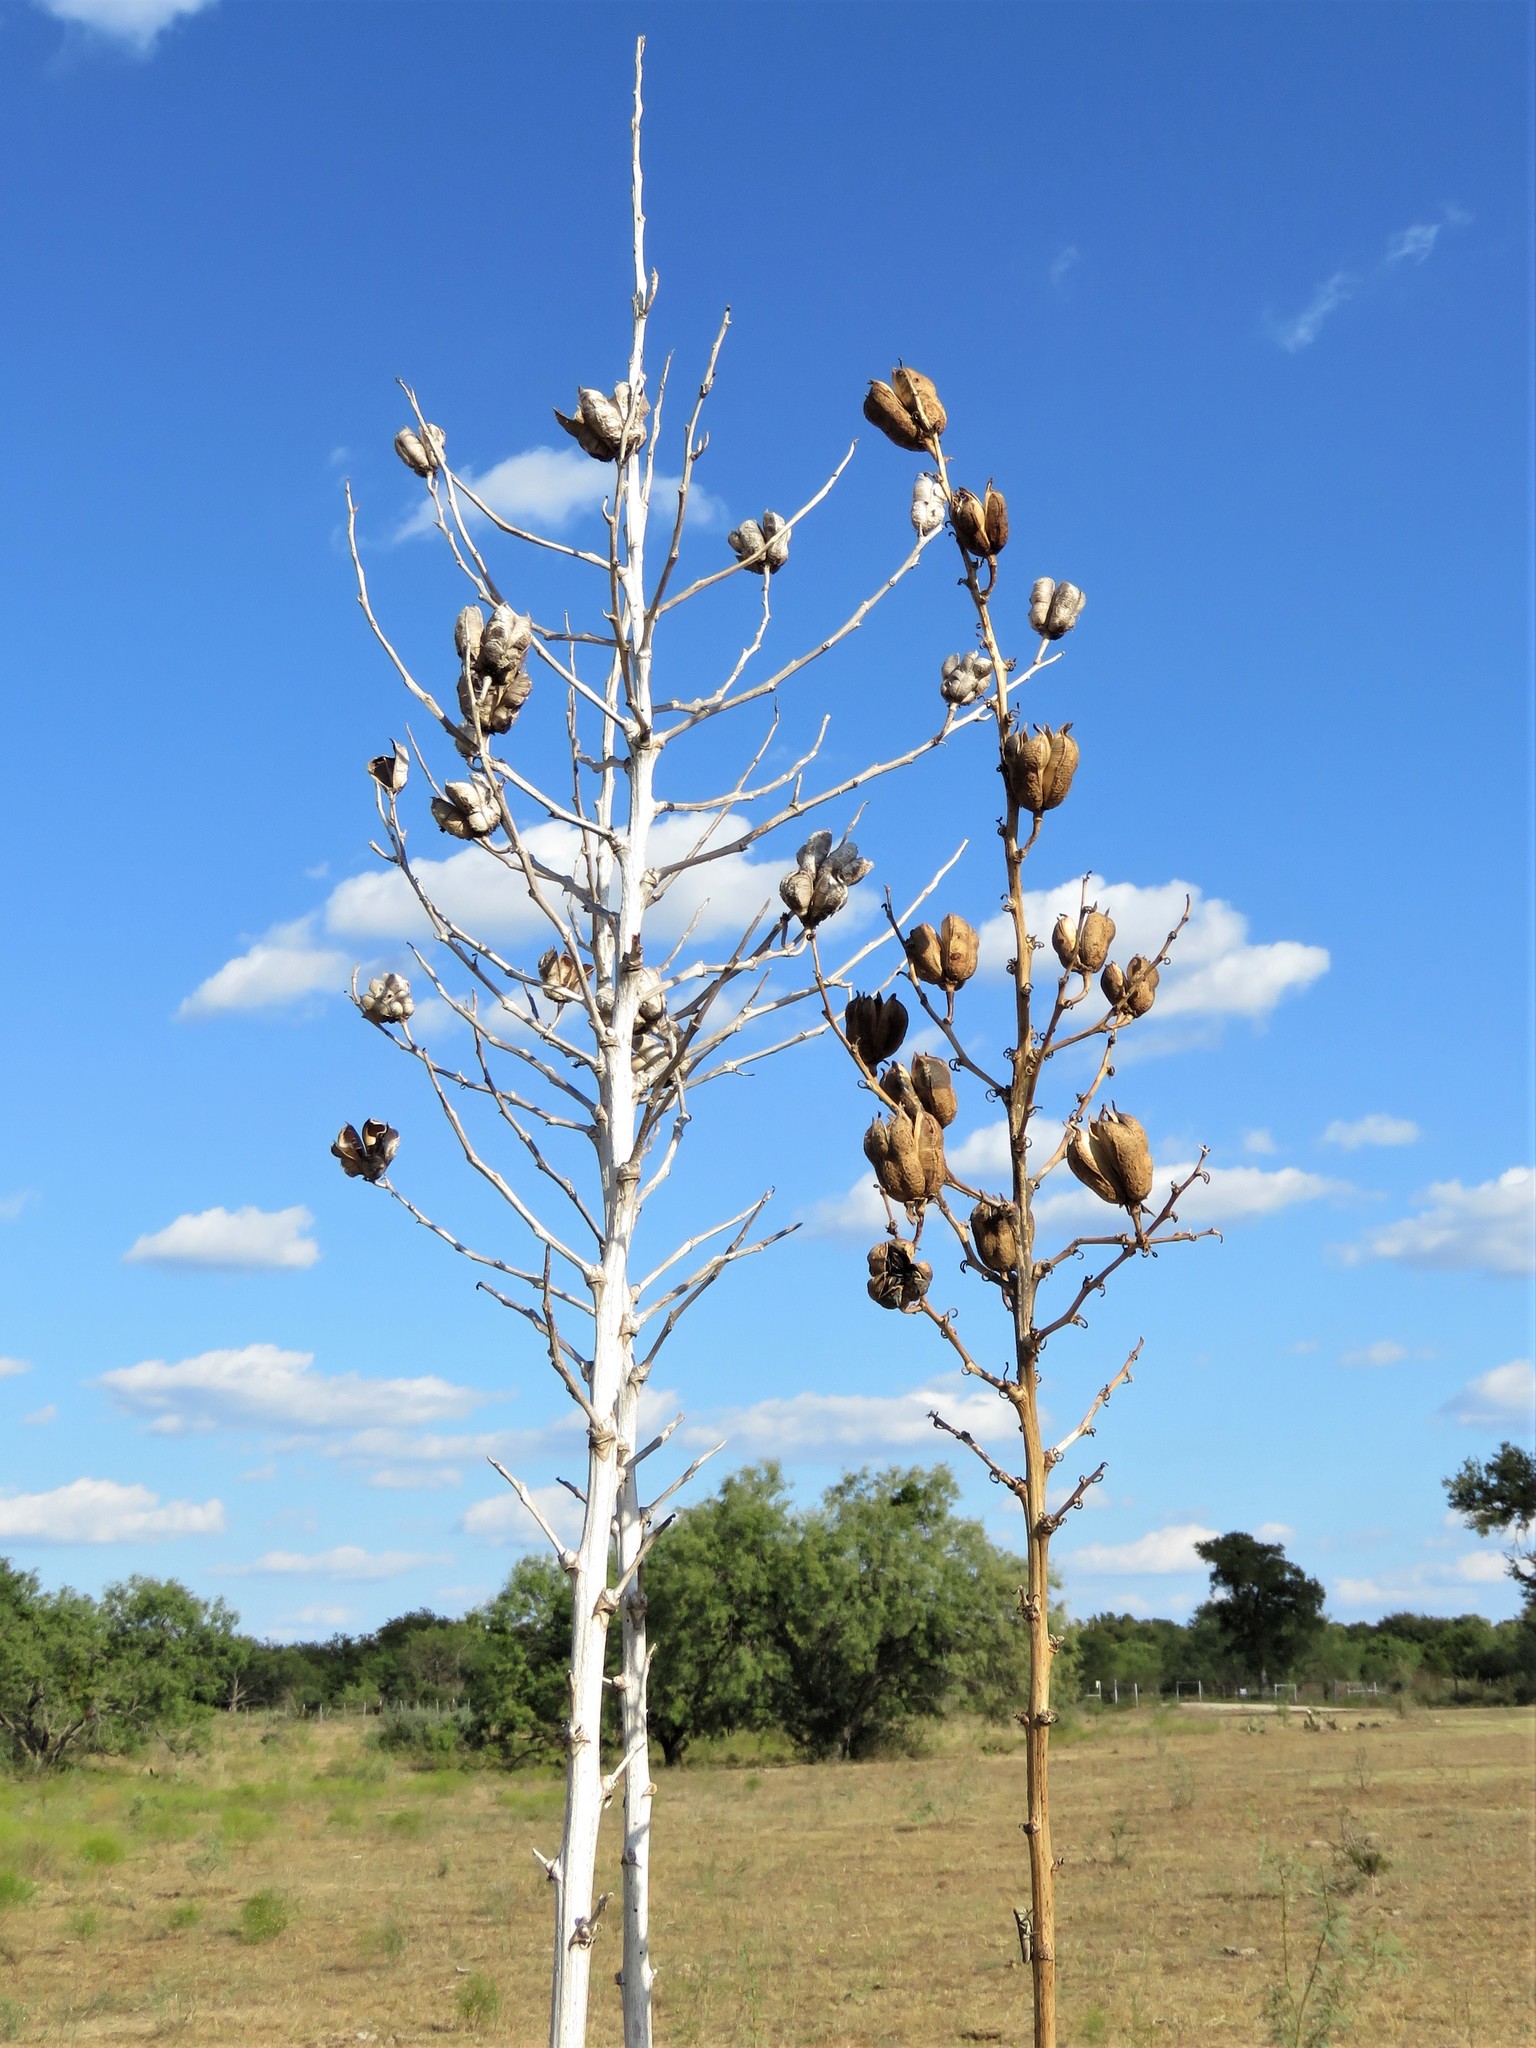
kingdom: Plantae
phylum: Tracheophyta
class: Liliopsida
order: Asparagales
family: Asparagaceae
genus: Yucca
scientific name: Yucca constricta
